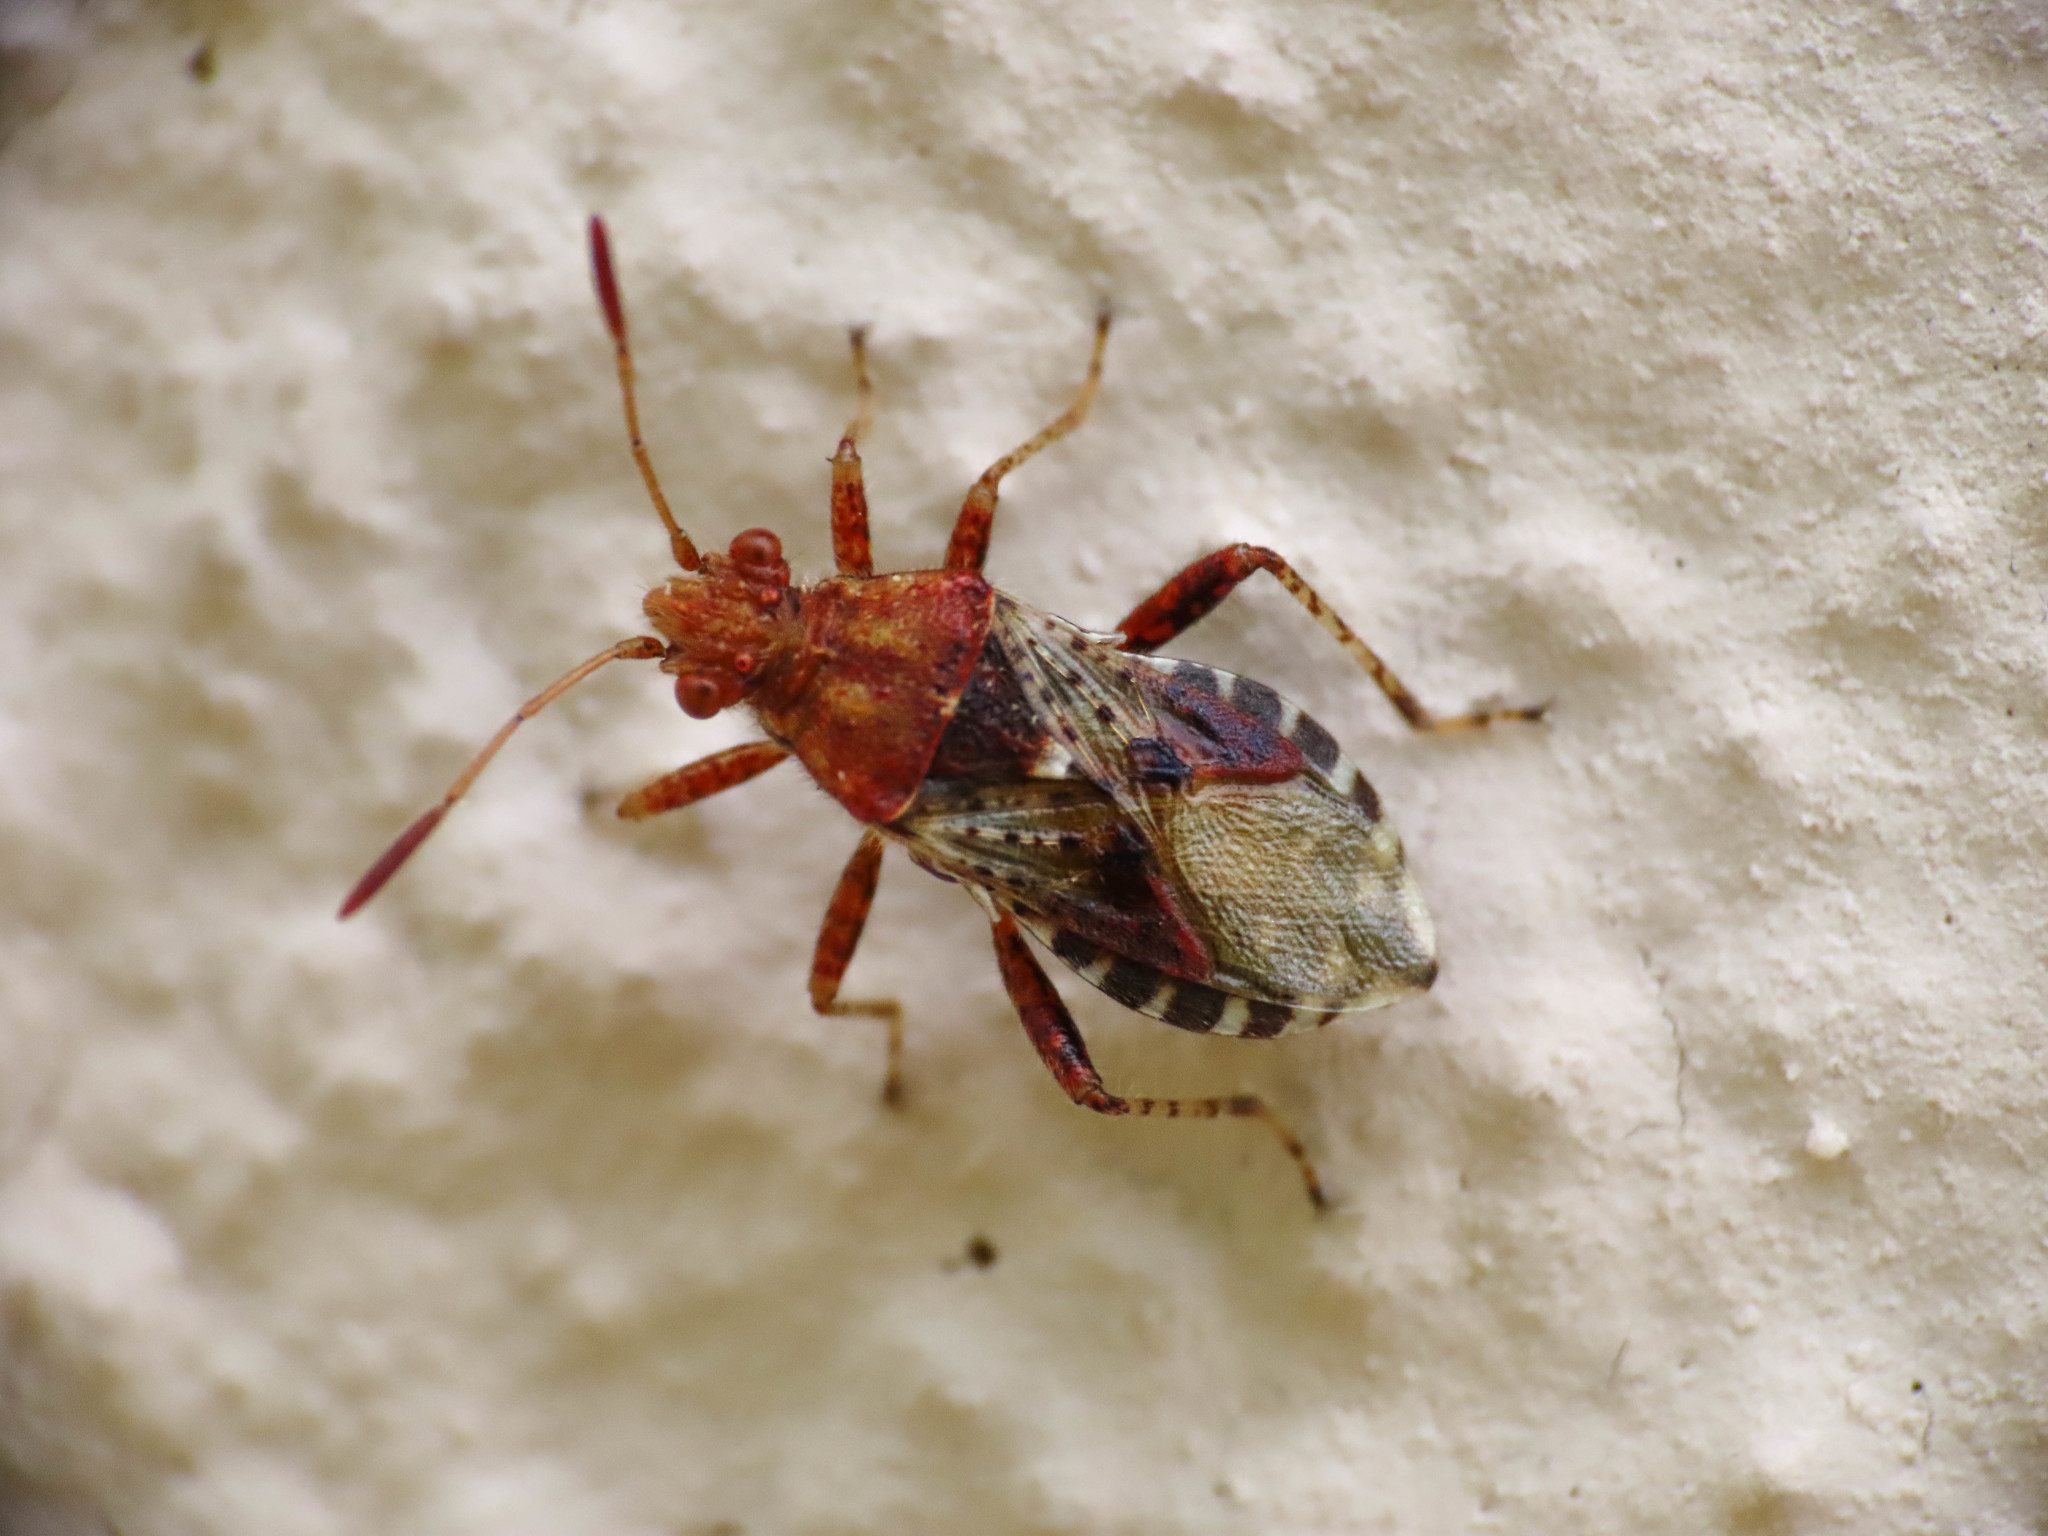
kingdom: Animalia
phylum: Arthropoda
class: Insecta
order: Hemiptera
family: Rhopalidae
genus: Rhopalus
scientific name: Rhopalus subrufus
